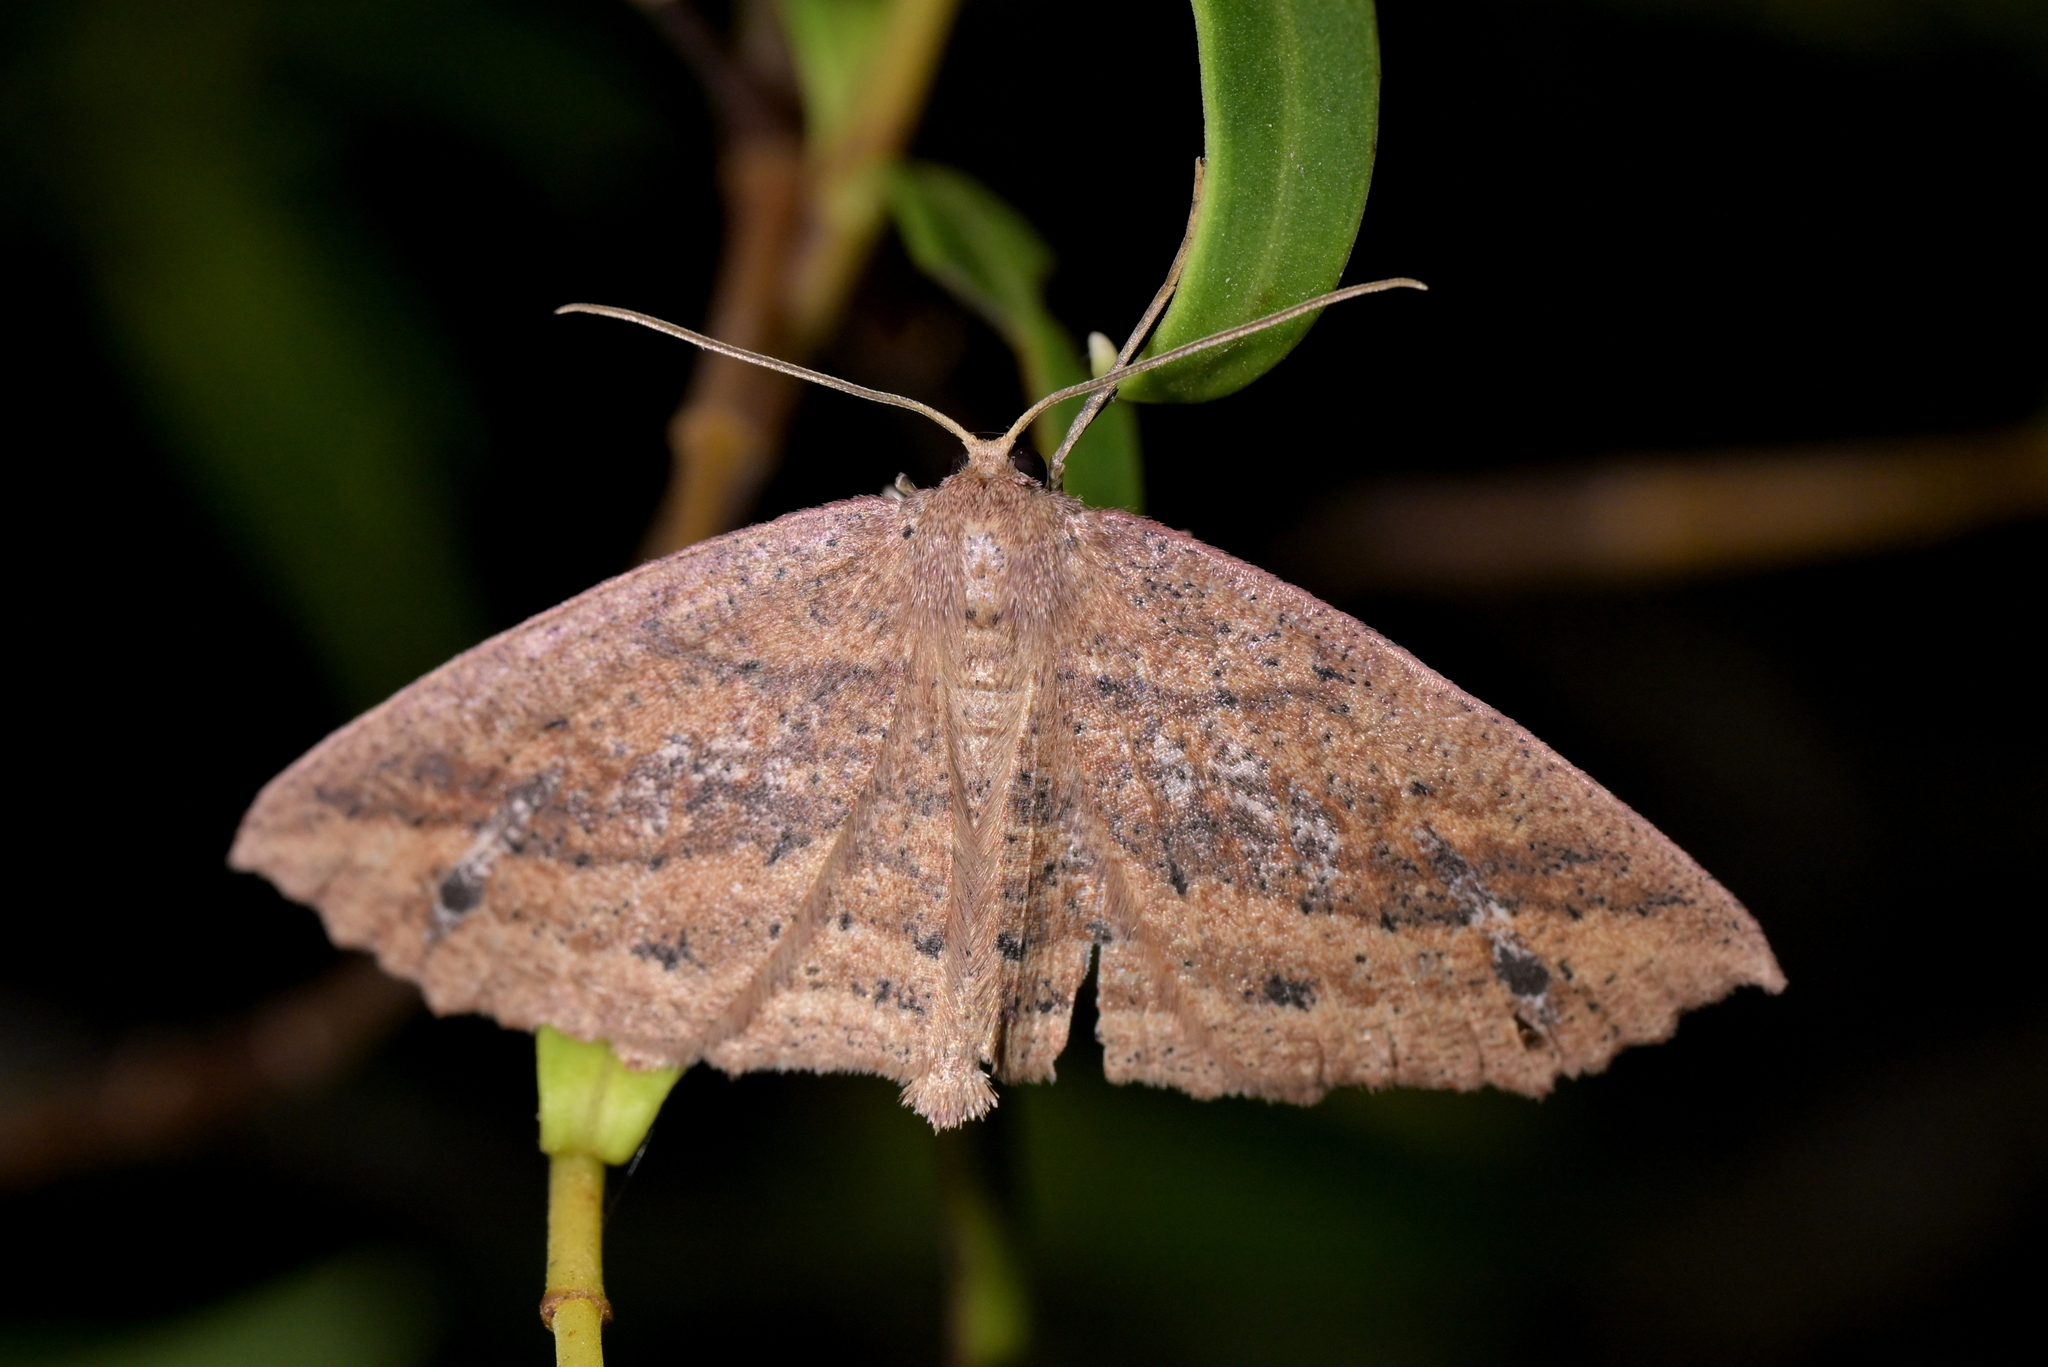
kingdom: Animalia
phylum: Arthropoda
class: Insecta
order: Lepidoptera
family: Geometridae
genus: Xyridacma
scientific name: Xyridacma veronicae
